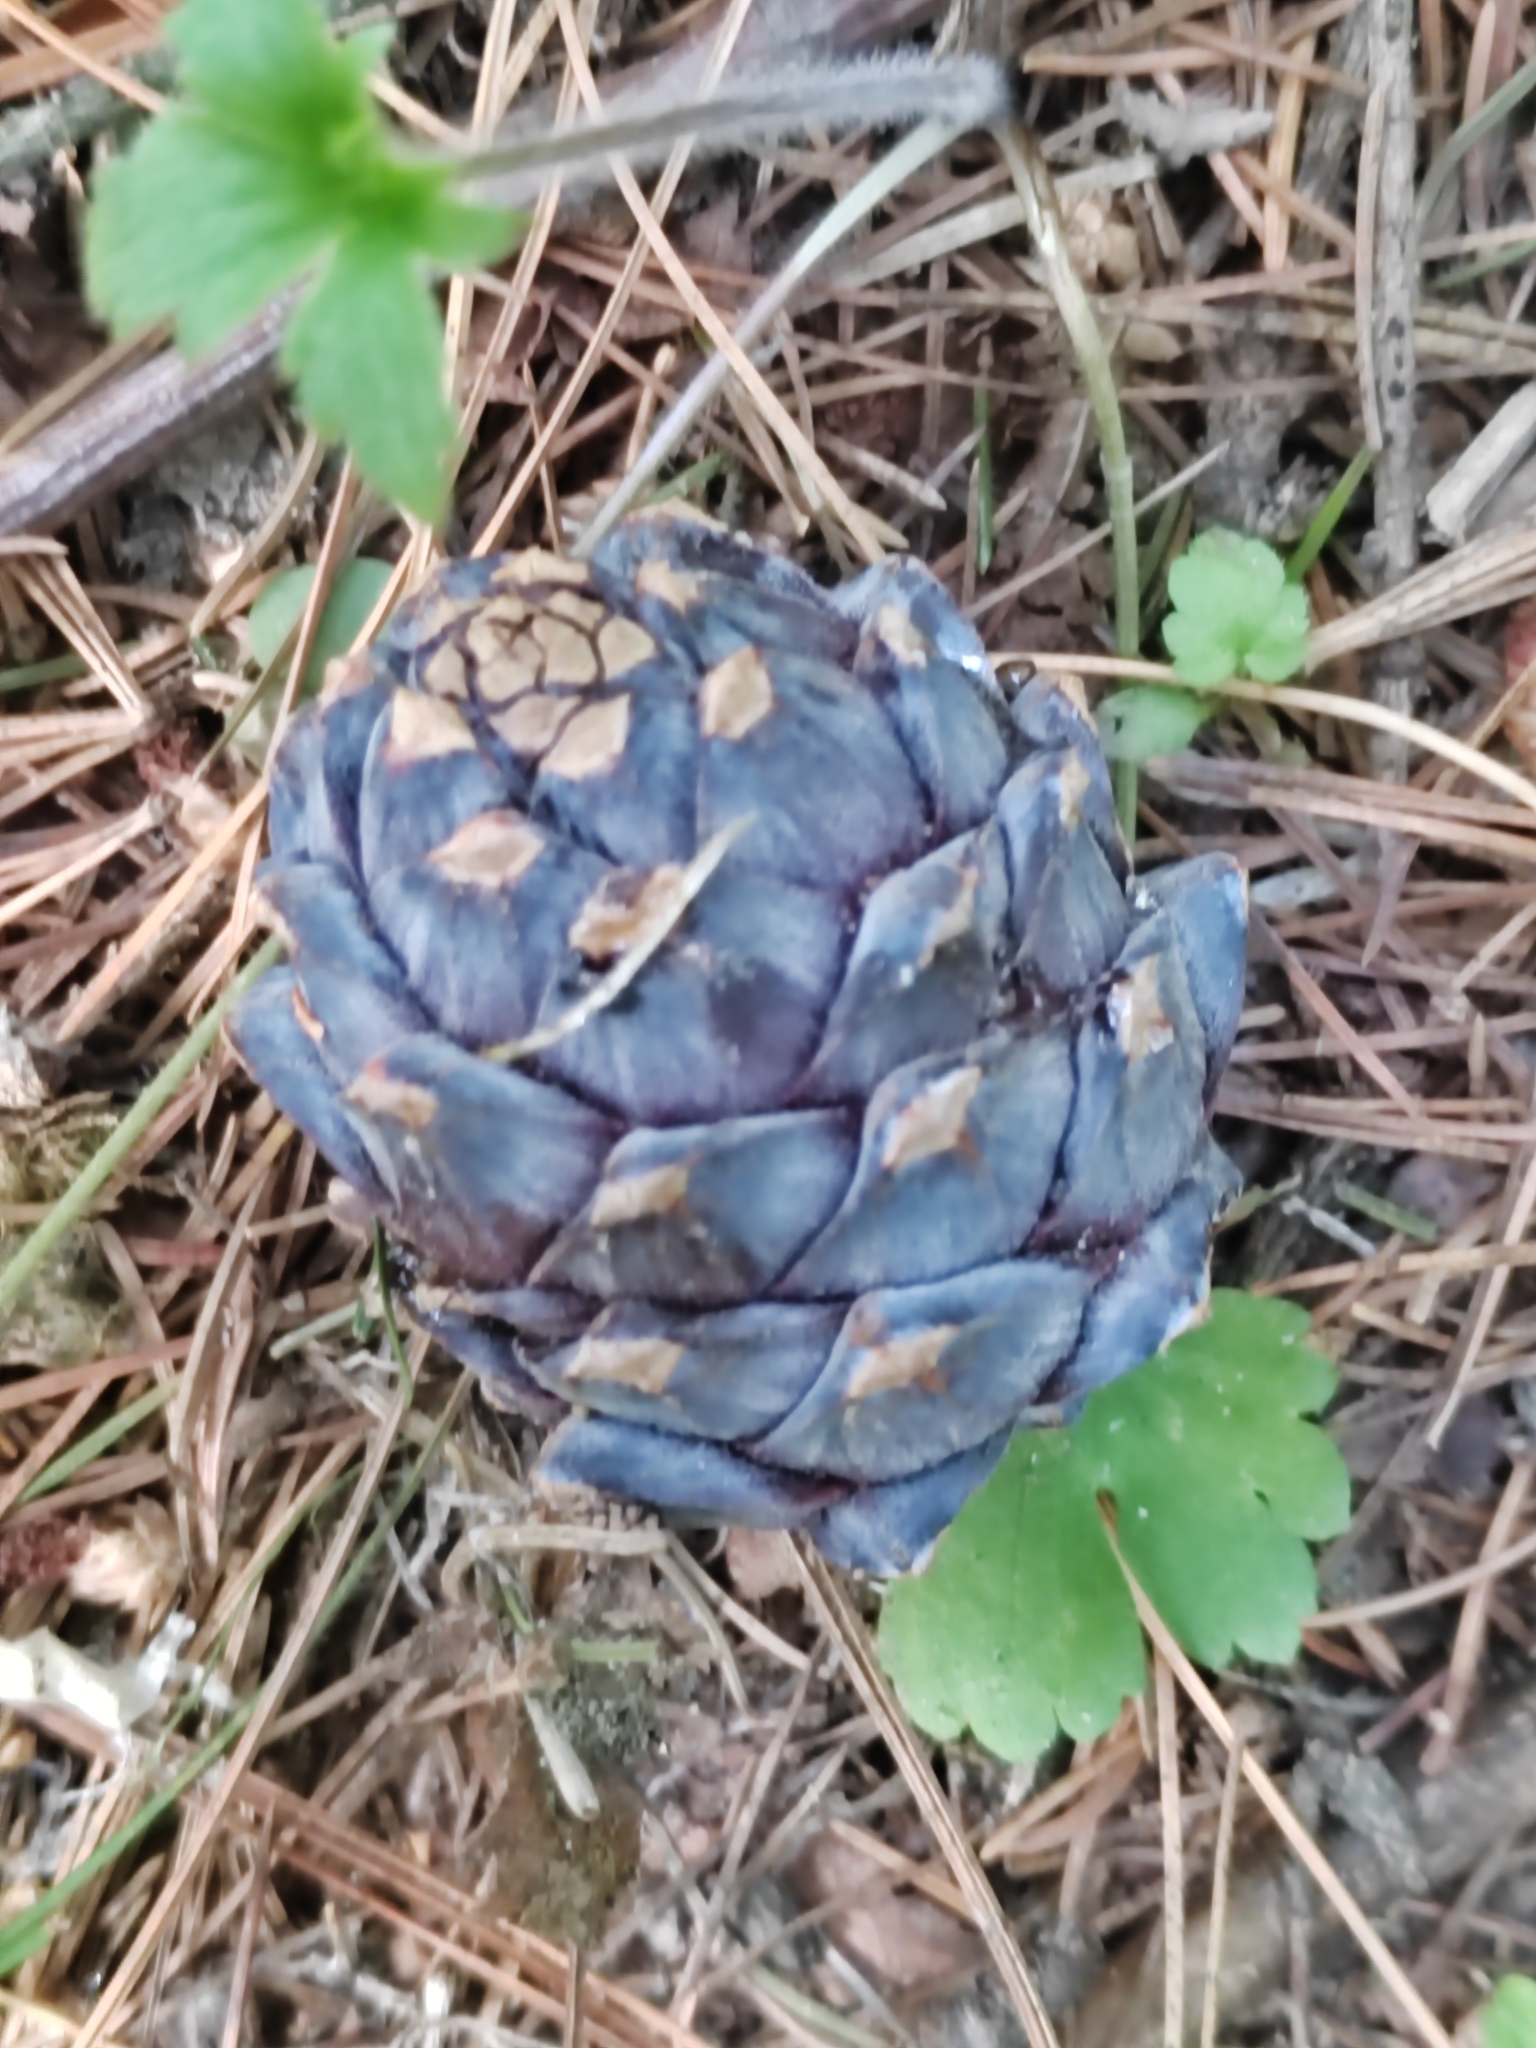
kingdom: Plantae
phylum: Tracheophyta
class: Pinopsida
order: Pinales
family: Pinaceae
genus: Pinus
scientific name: Pinus sibirica
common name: Siberian pine
